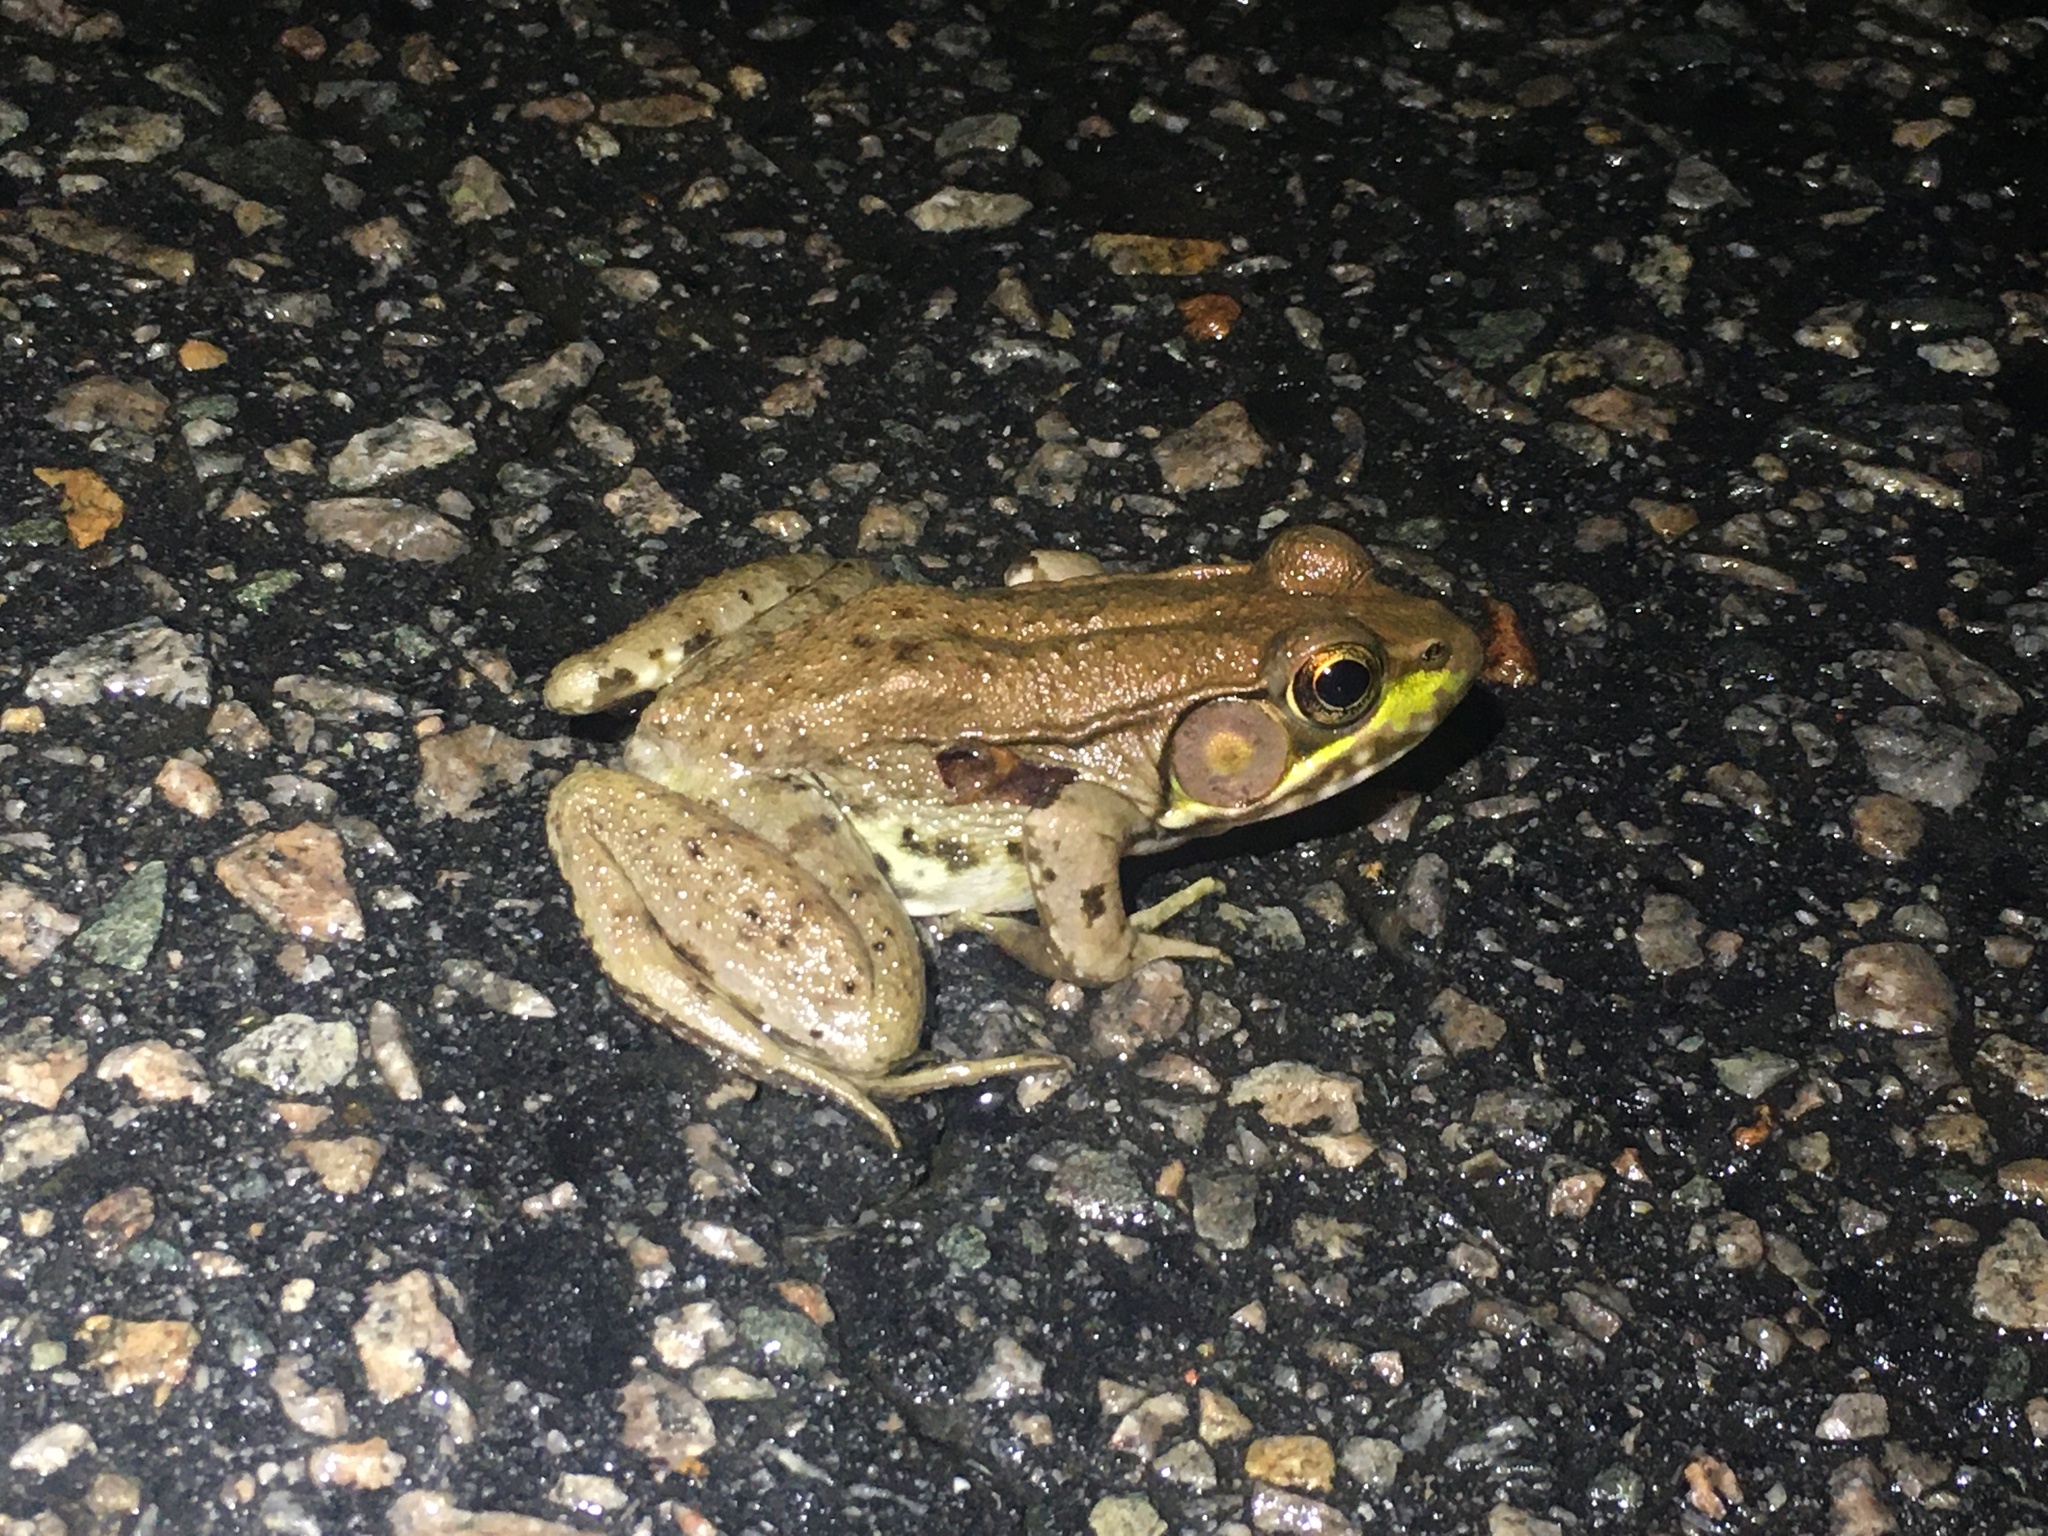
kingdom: Animalia
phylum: Chordata
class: Amphibia
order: Anura
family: Ranidae
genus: Lithobates
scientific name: Lithobates clamitans
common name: Green frog
